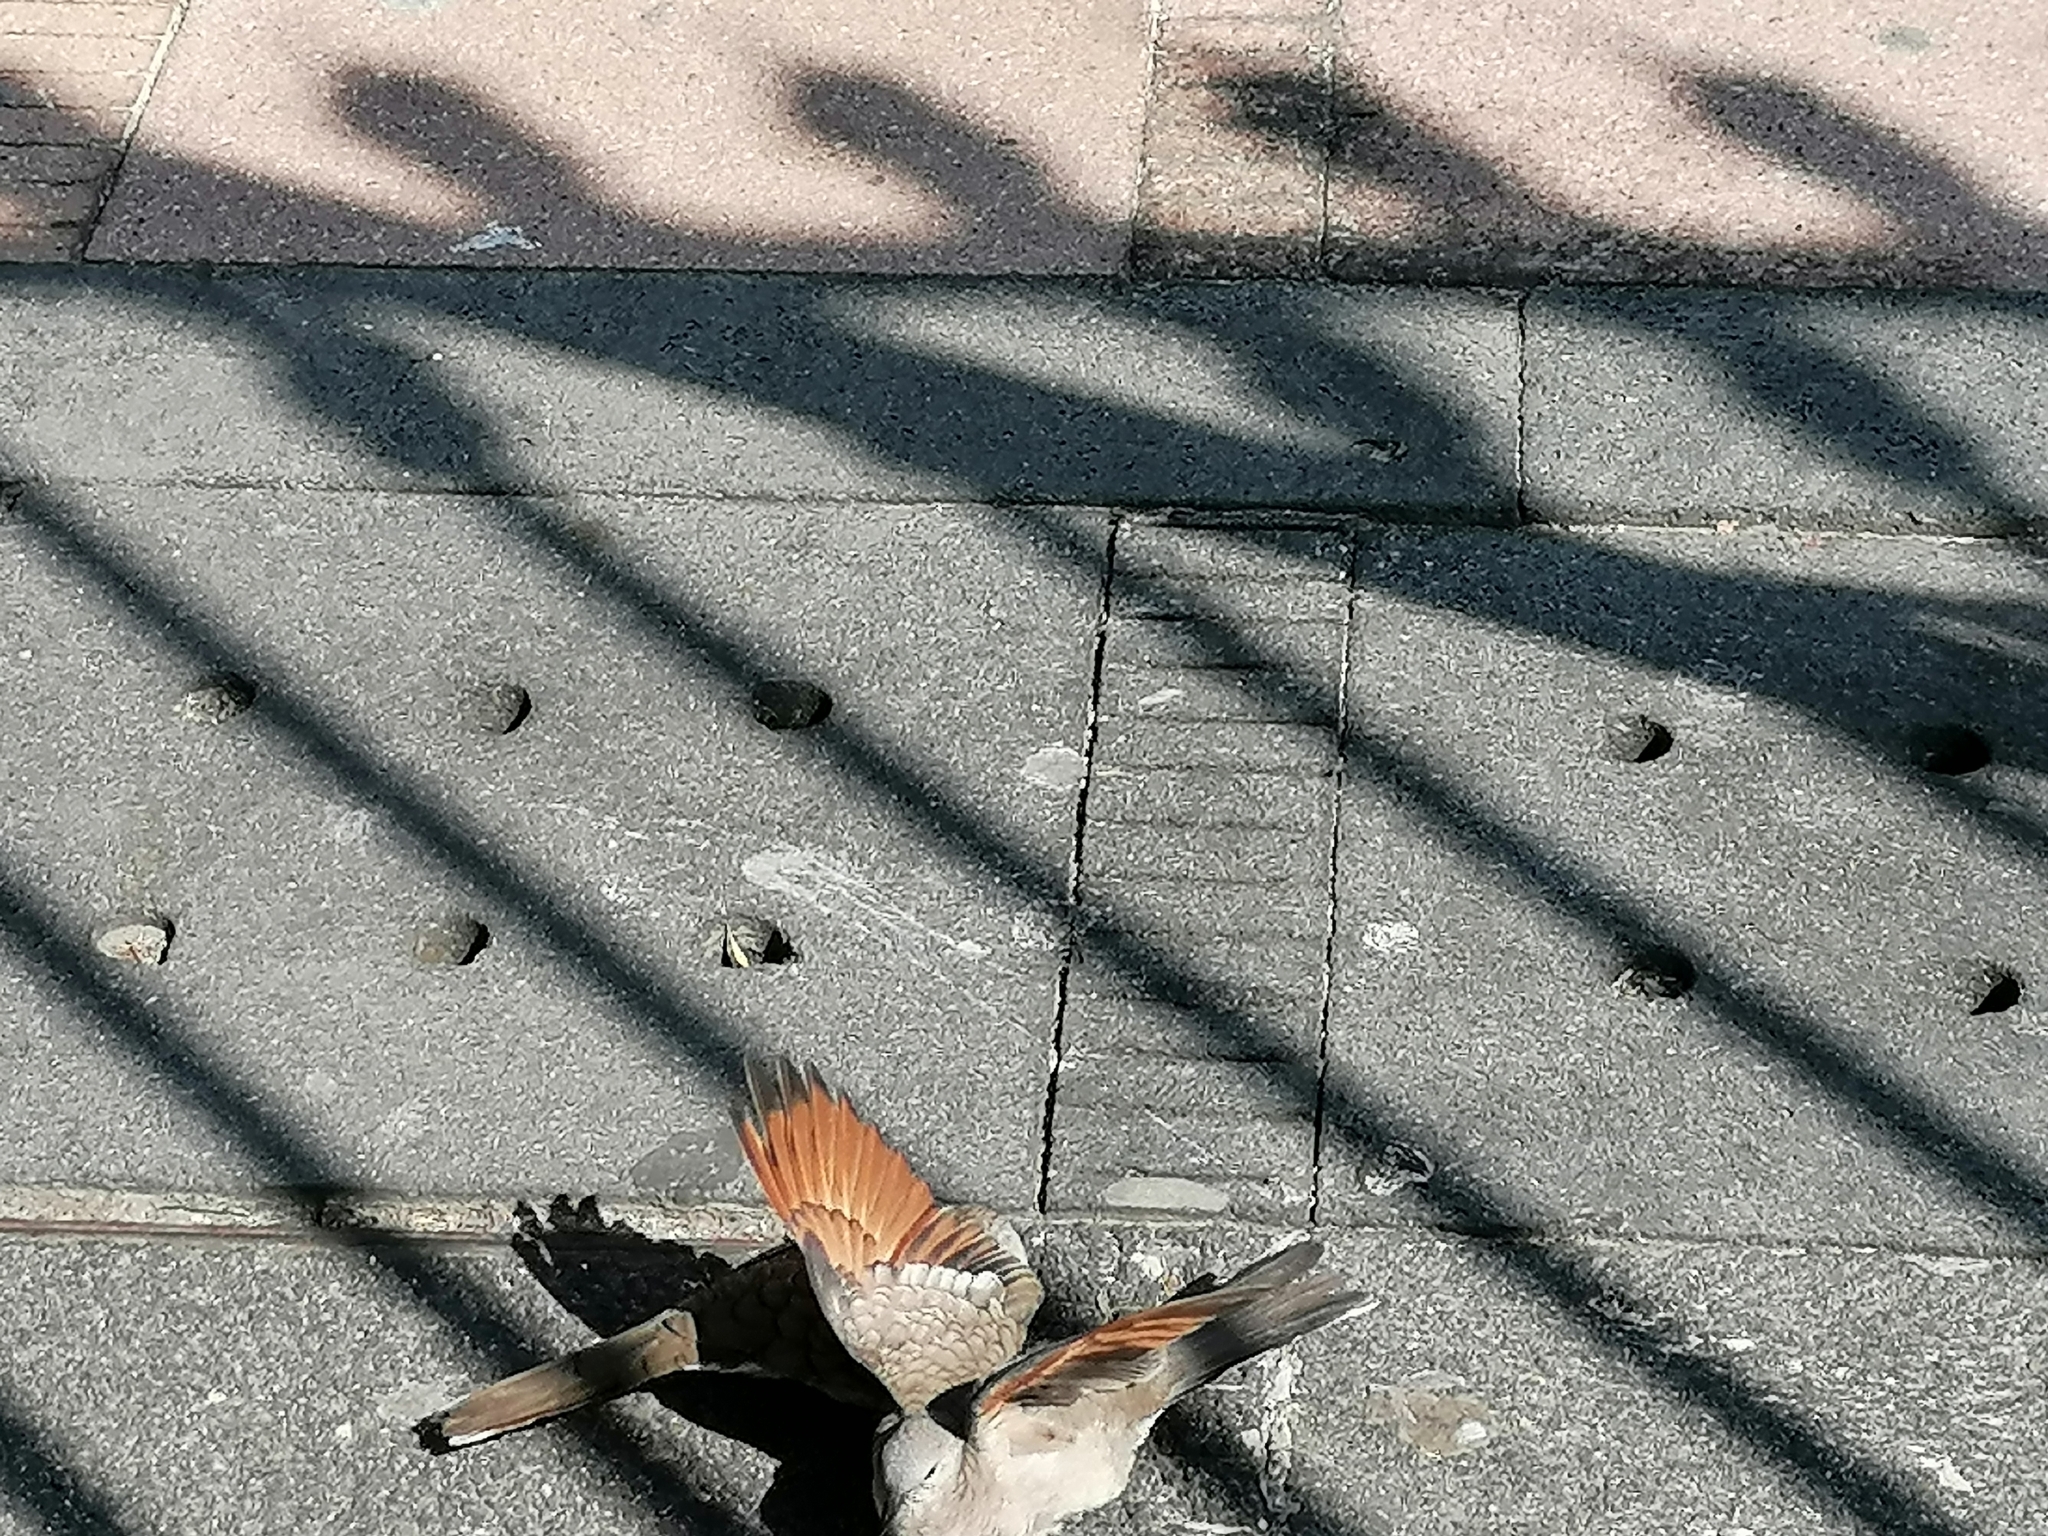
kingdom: Animalia
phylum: Chordata
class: Aves
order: Columbiformes
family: Columbidae
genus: Columbina
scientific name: Columbina inca
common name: Inca dove
